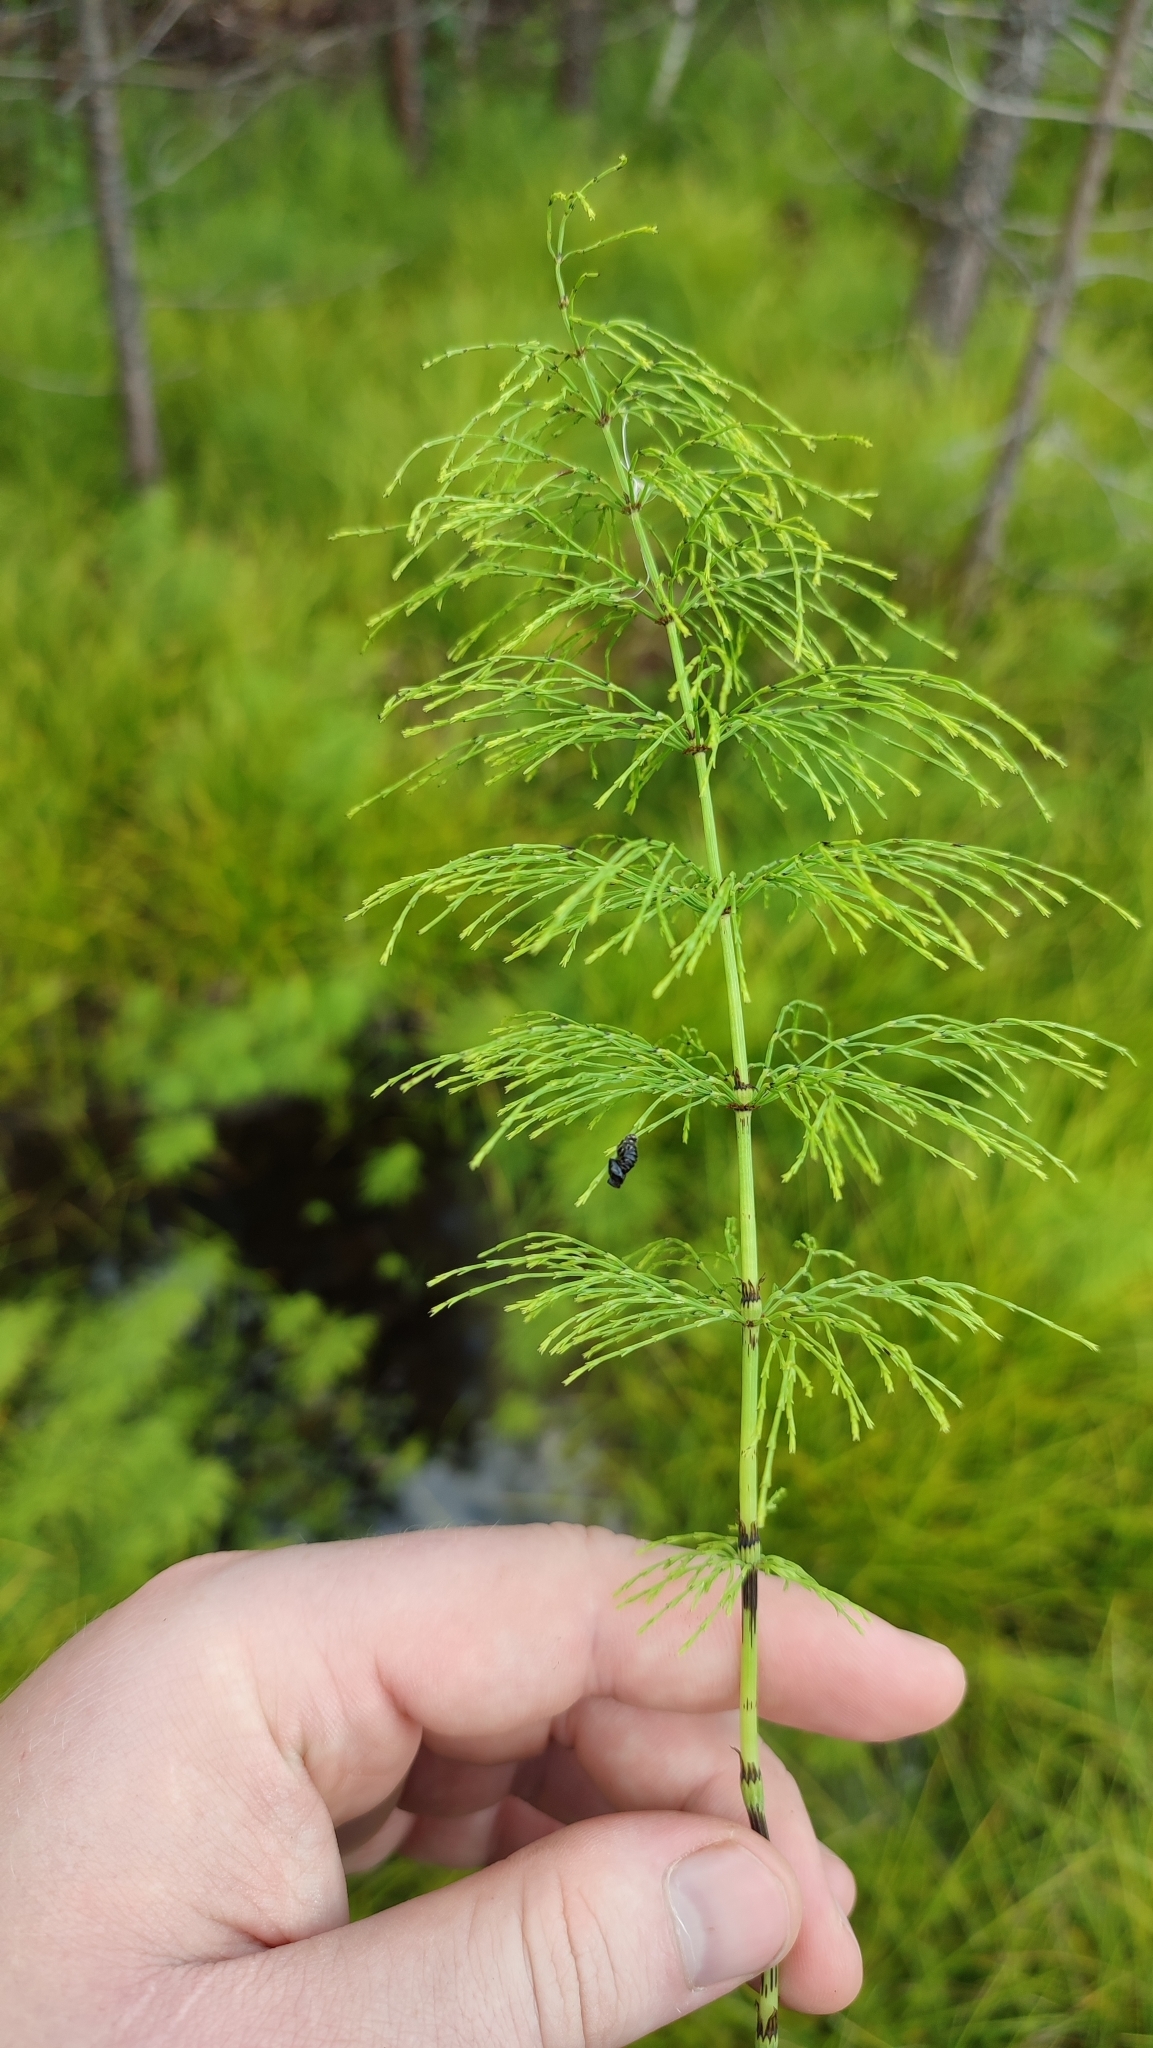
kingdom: Plantae
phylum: Tracheophyta
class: Polypodiopsida
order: Equisetales
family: Equisetaceae
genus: Equisetum
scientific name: Equisetum sylvaticum
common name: Wood horsetail
